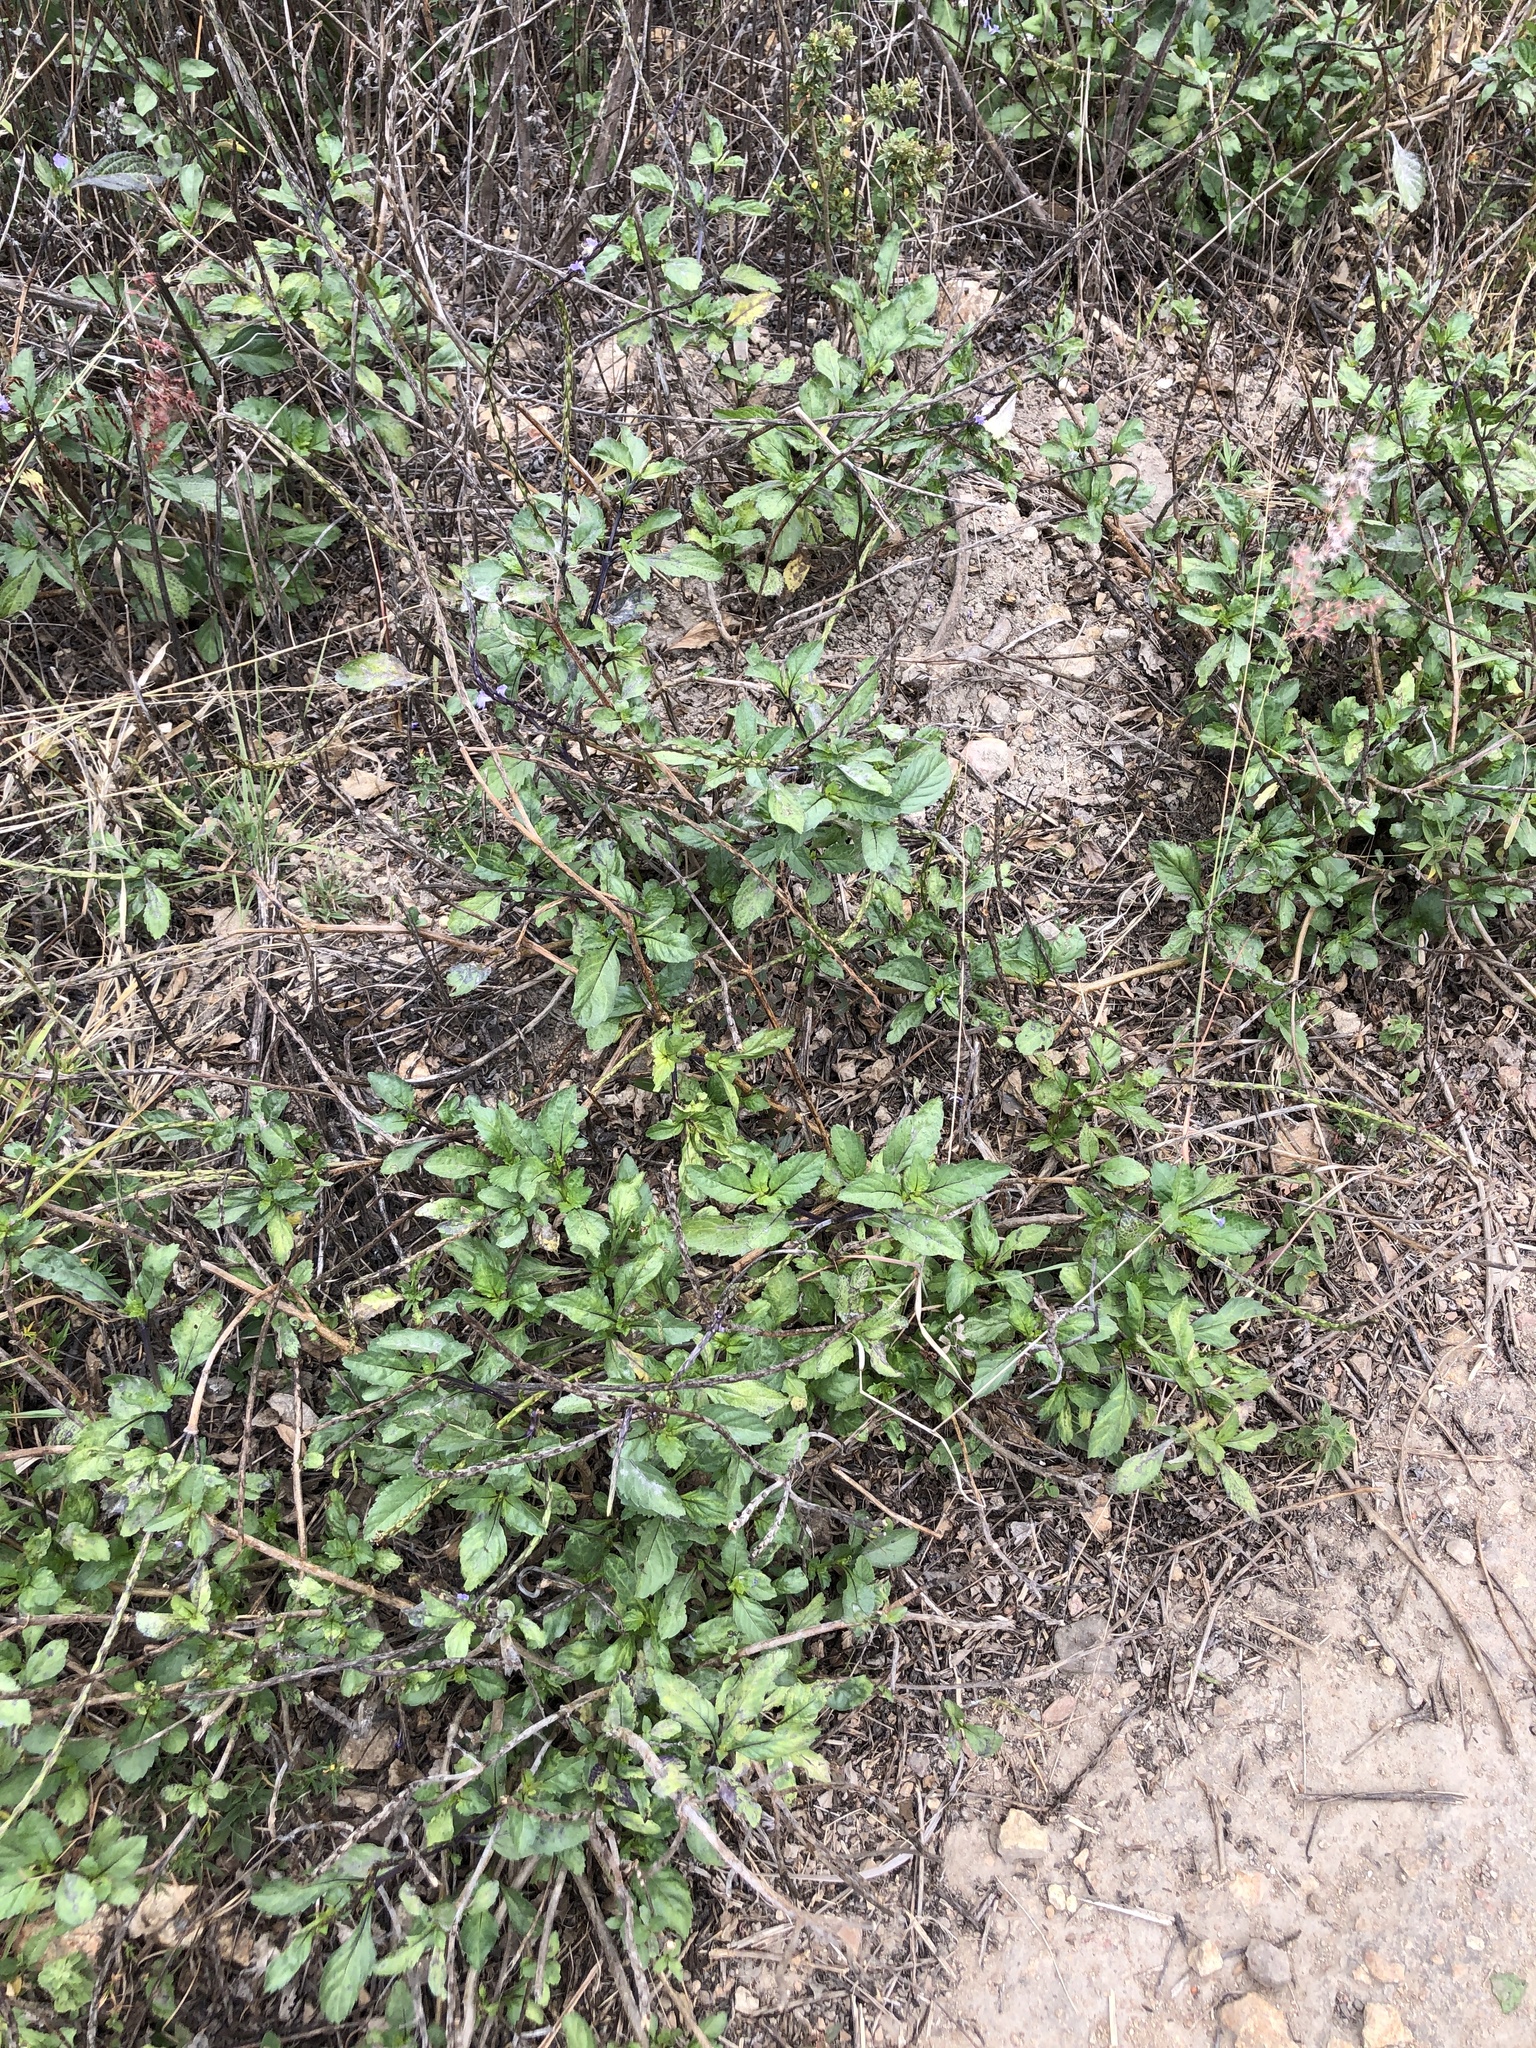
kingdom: Plantae
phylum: Tracheophyta
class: Magnoliopsida
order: Lamiales
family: Verbenaceae
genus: Stachytarpheta
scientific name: Stachytarpheta jamaicensis
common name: Light-blue snakeweed
